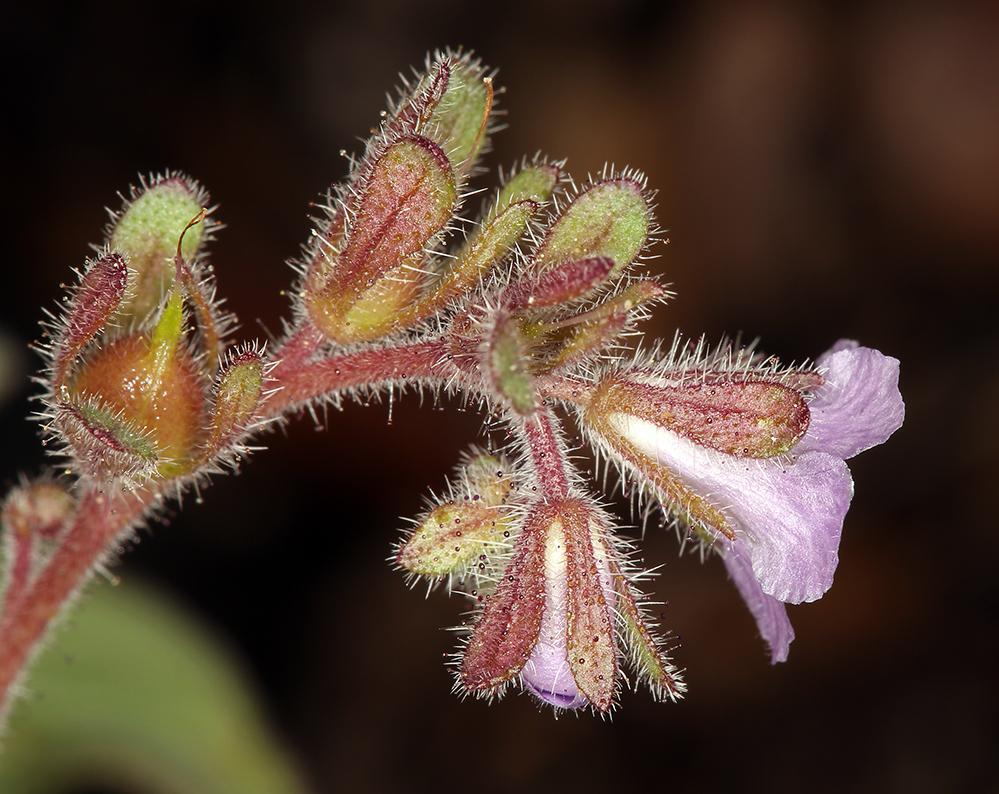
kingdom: Plantae
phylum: Tracheophyta
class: Magnoliopsida
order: Boraginales
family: Hydrophyllaceae
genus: Phacelia
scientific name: Phacelia vallicola
